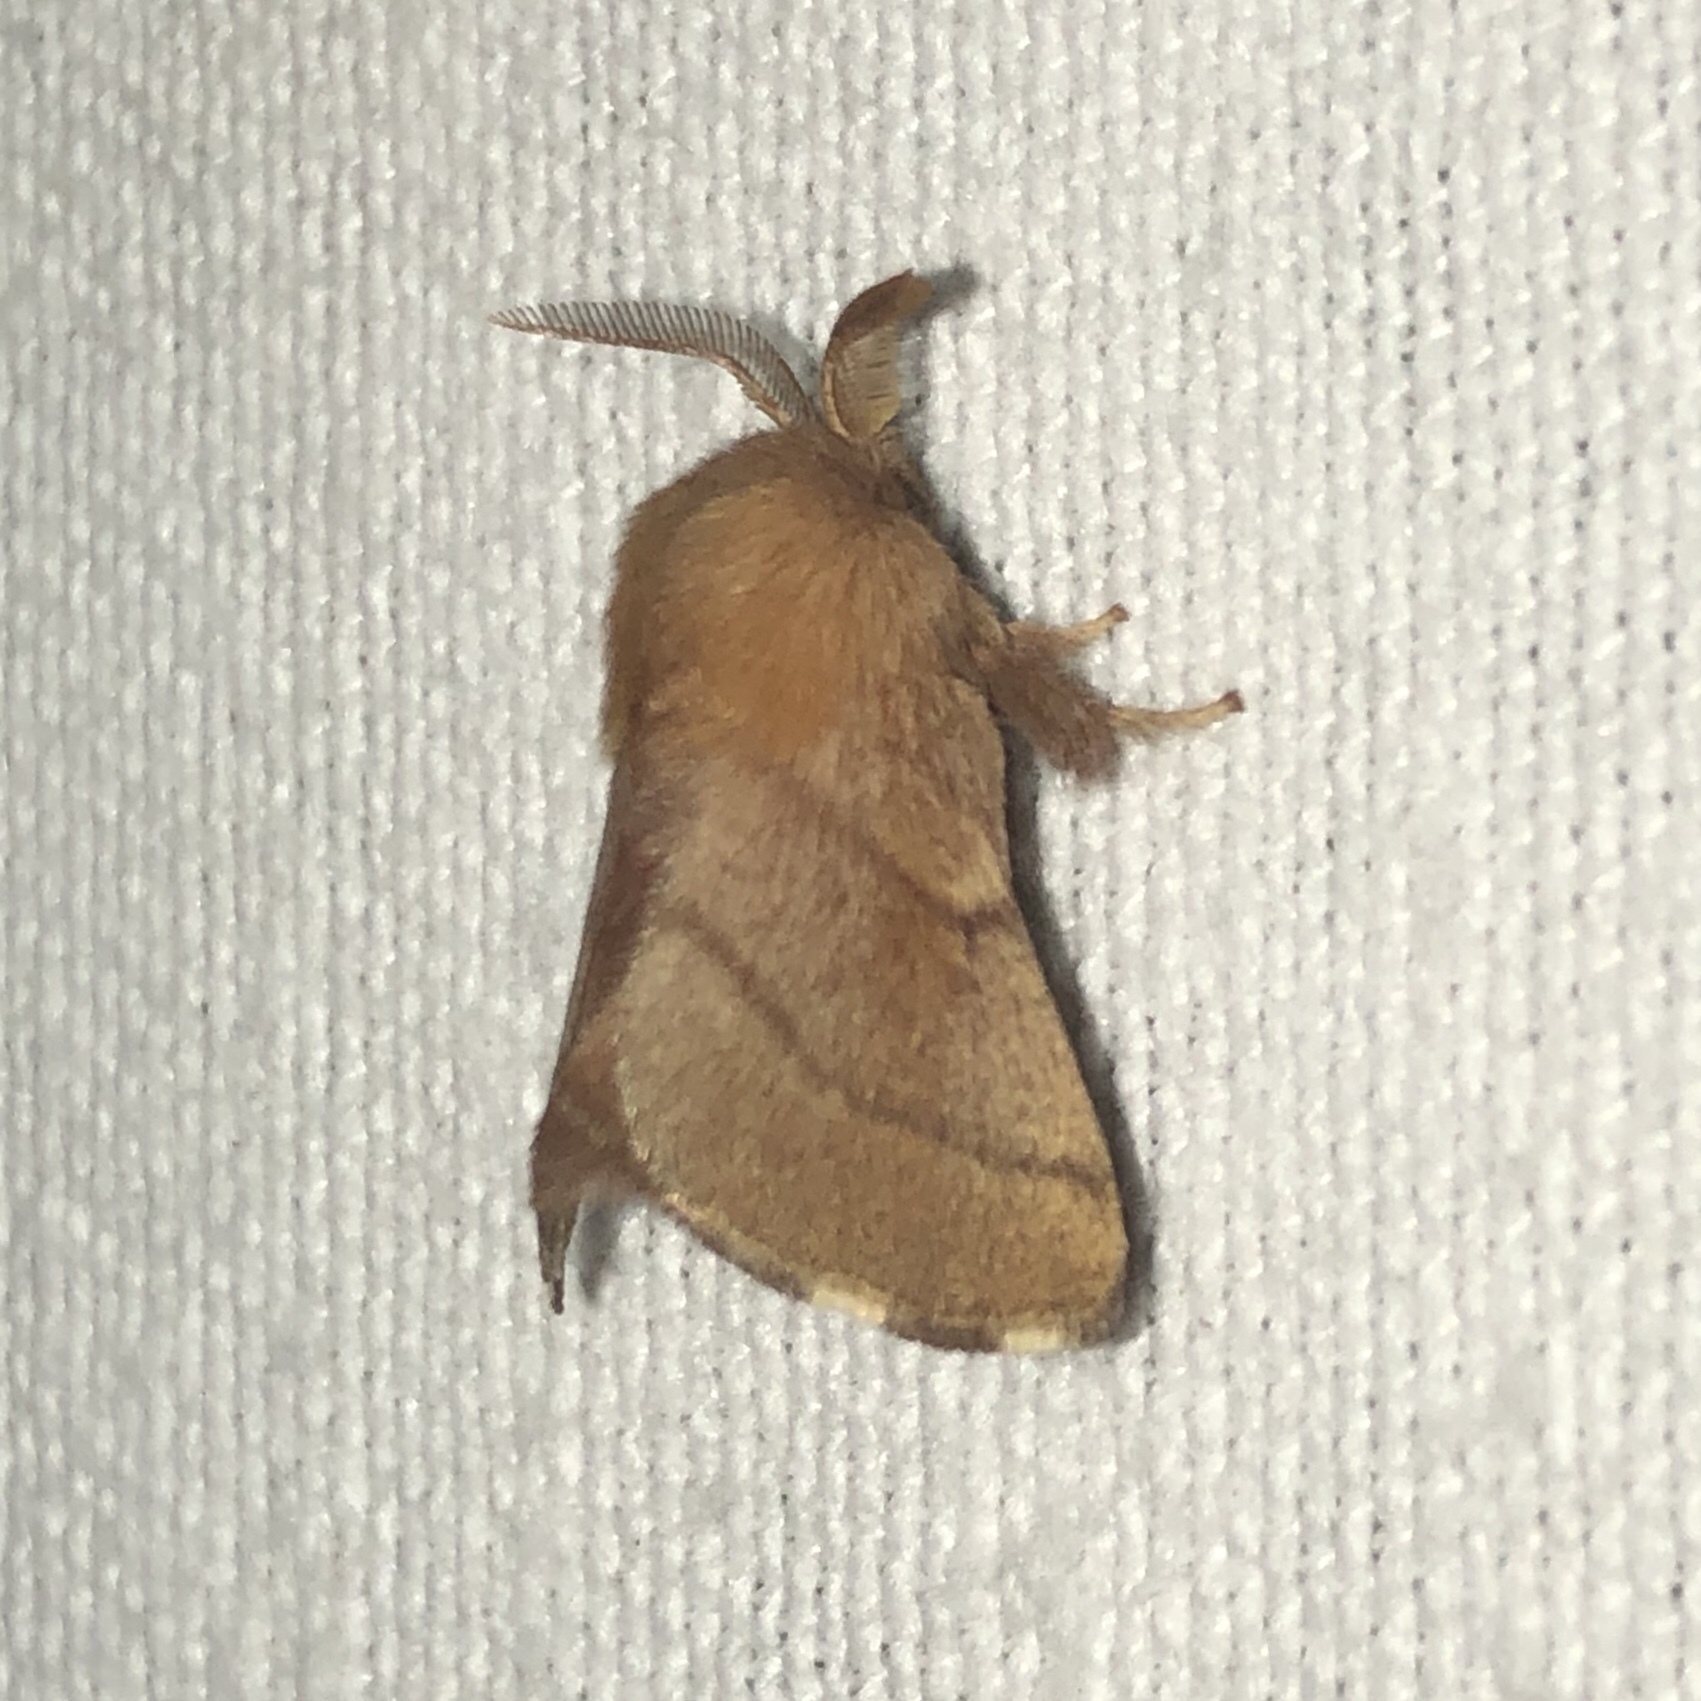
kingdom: Animalia
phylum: Arthropoda
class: Insecta
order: Lepidoptera
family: Lasiocampidae
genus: Malacosoma
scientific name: Malacosoma disstria
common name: Forest tent caterpillar
